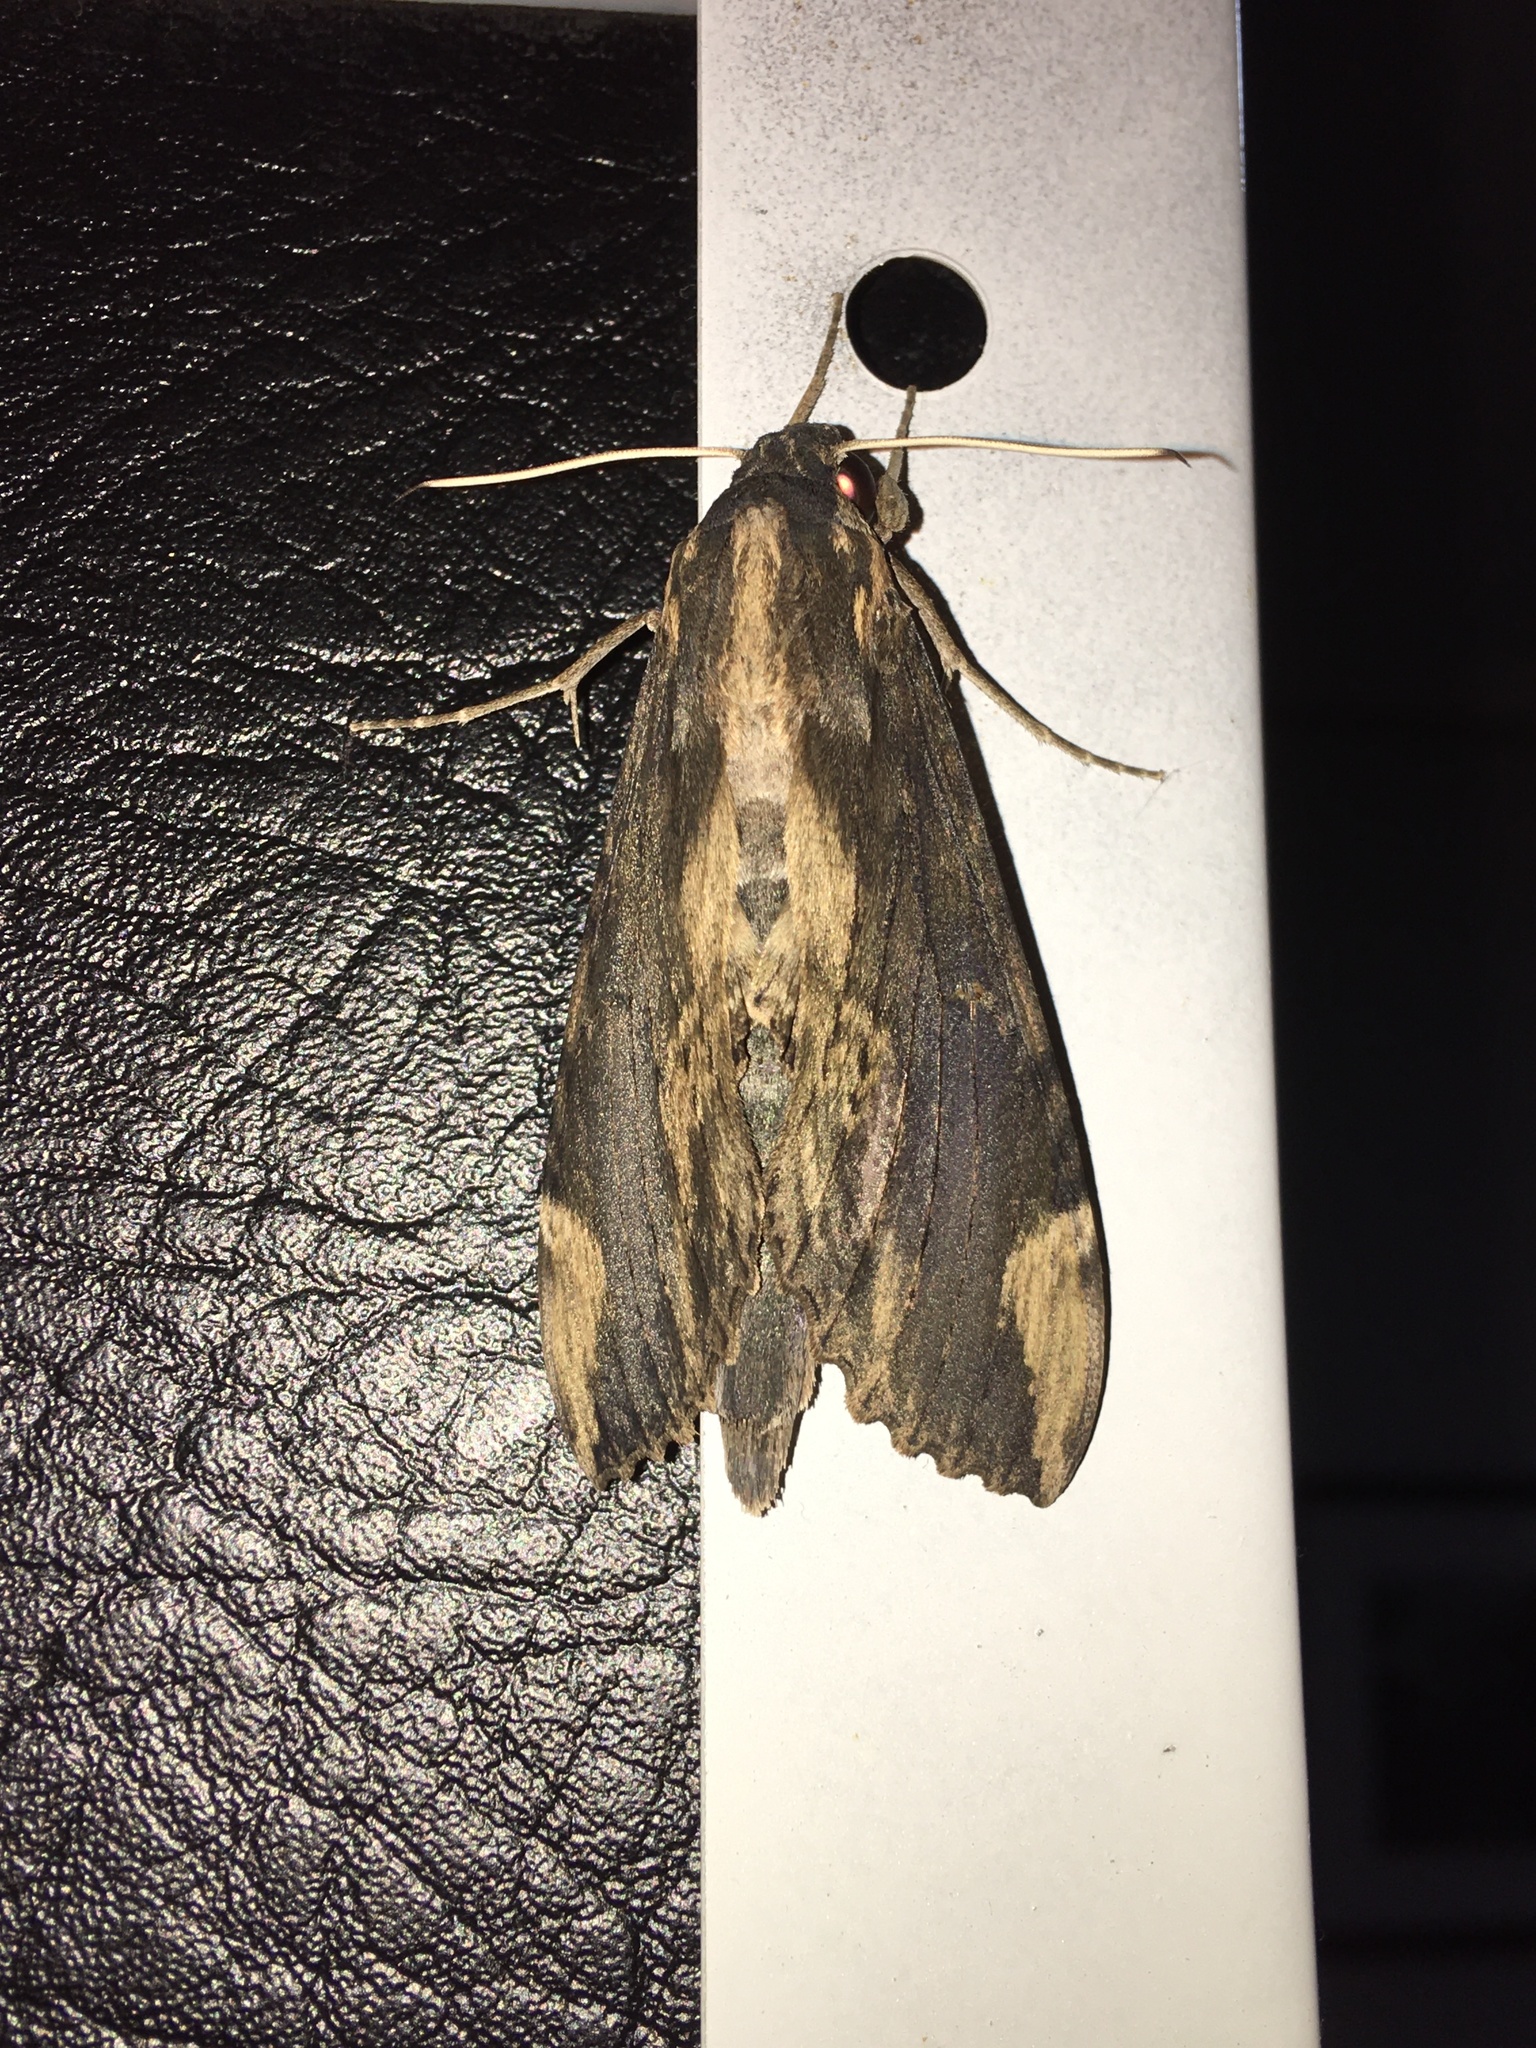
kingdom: Animalia
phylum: Arthropoda
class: Insecta
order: Lepidoptera
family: Sphingidae
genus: Erinnyis
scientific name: Erinnyis lassauxi
